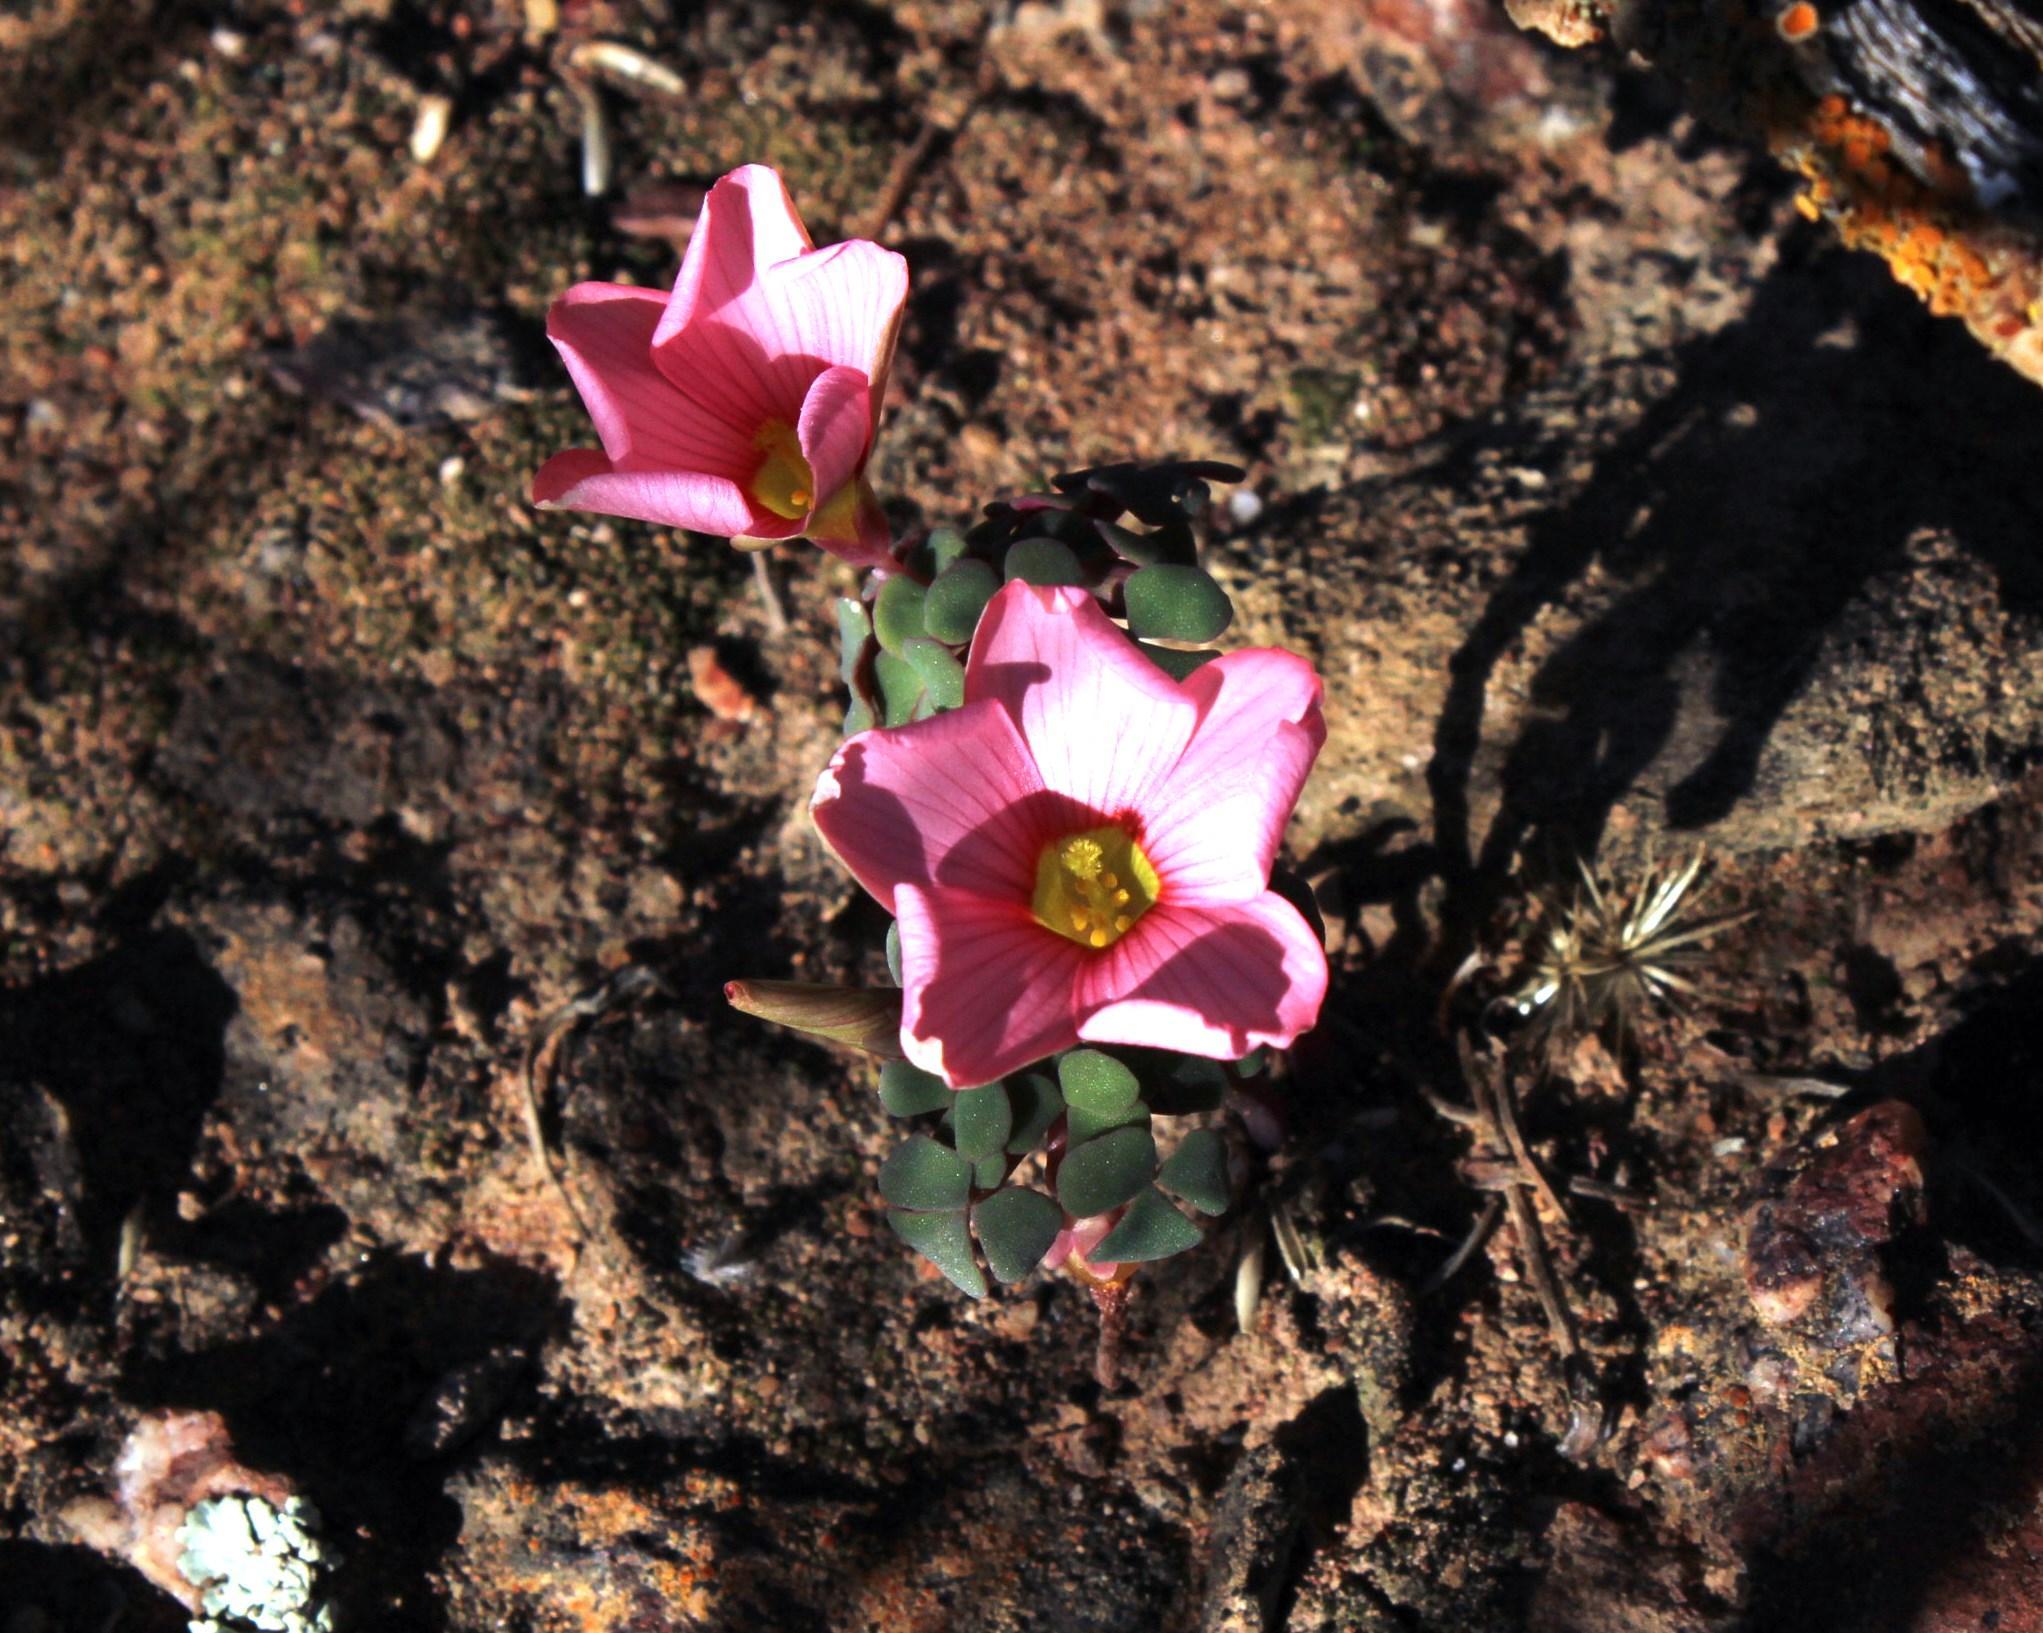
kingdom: Plantae
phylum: Tracheophyta
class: Magnoliopsida
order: Oxalidales
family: Oxalidaceae
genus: Oxalis
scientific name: Oxalis convexula
